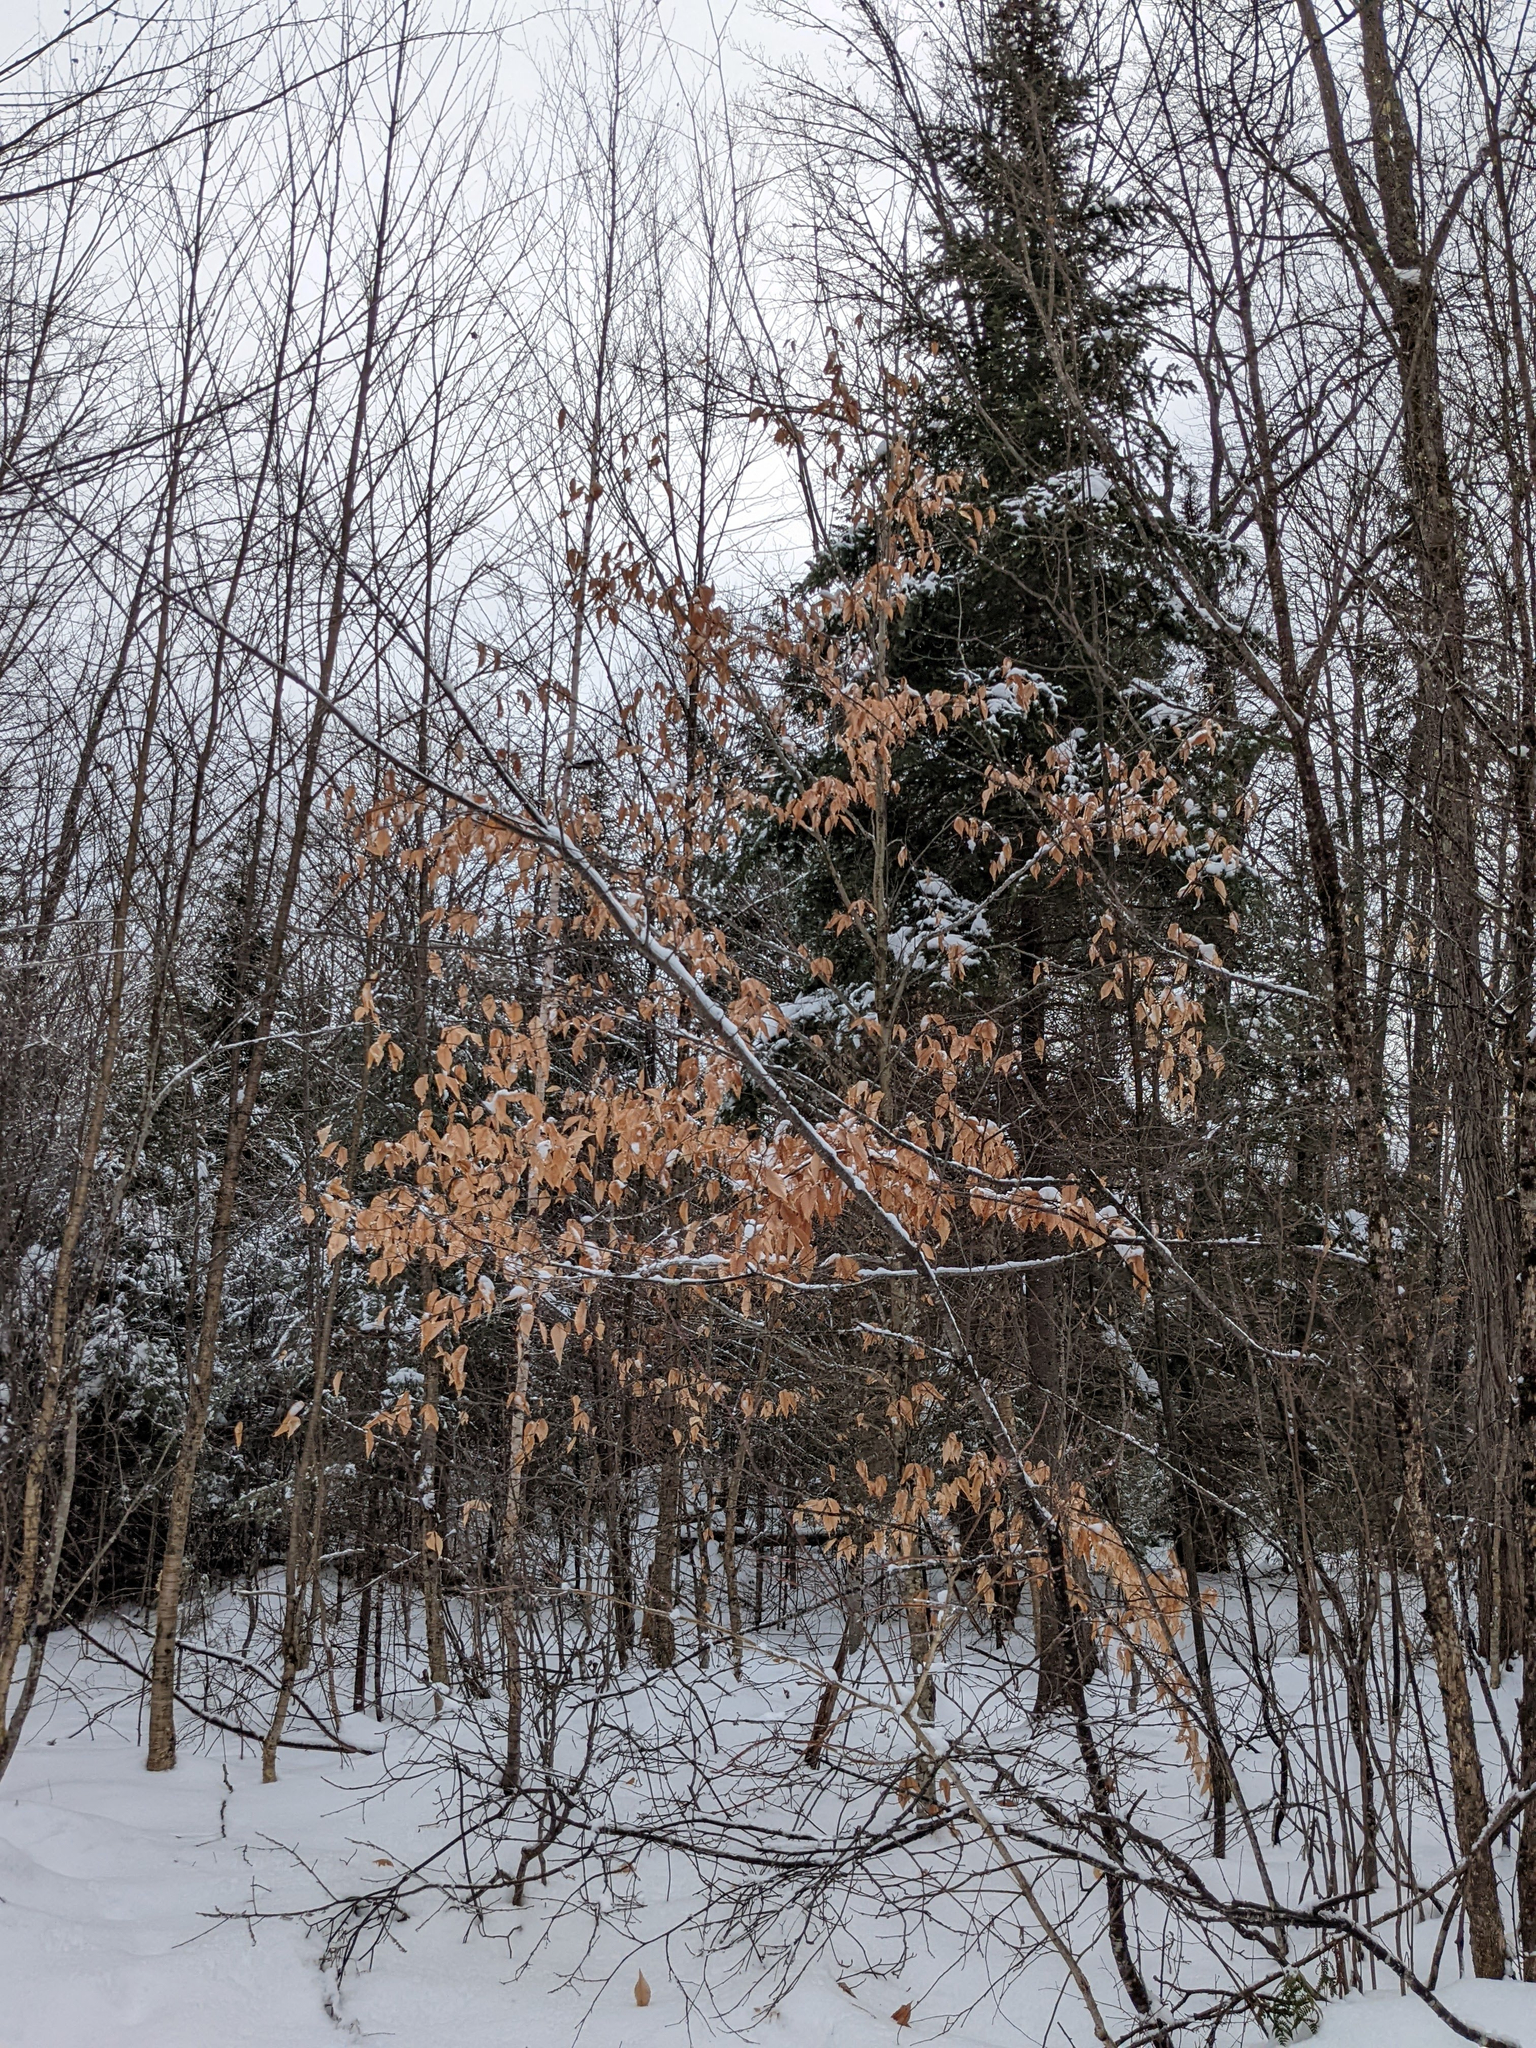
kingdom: Plantae
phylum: Tracheophyta
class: Magnoliopsida
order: Fagales
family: Fagaceae
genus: Fagus
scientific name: Fagus grandifolia
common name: American beech
